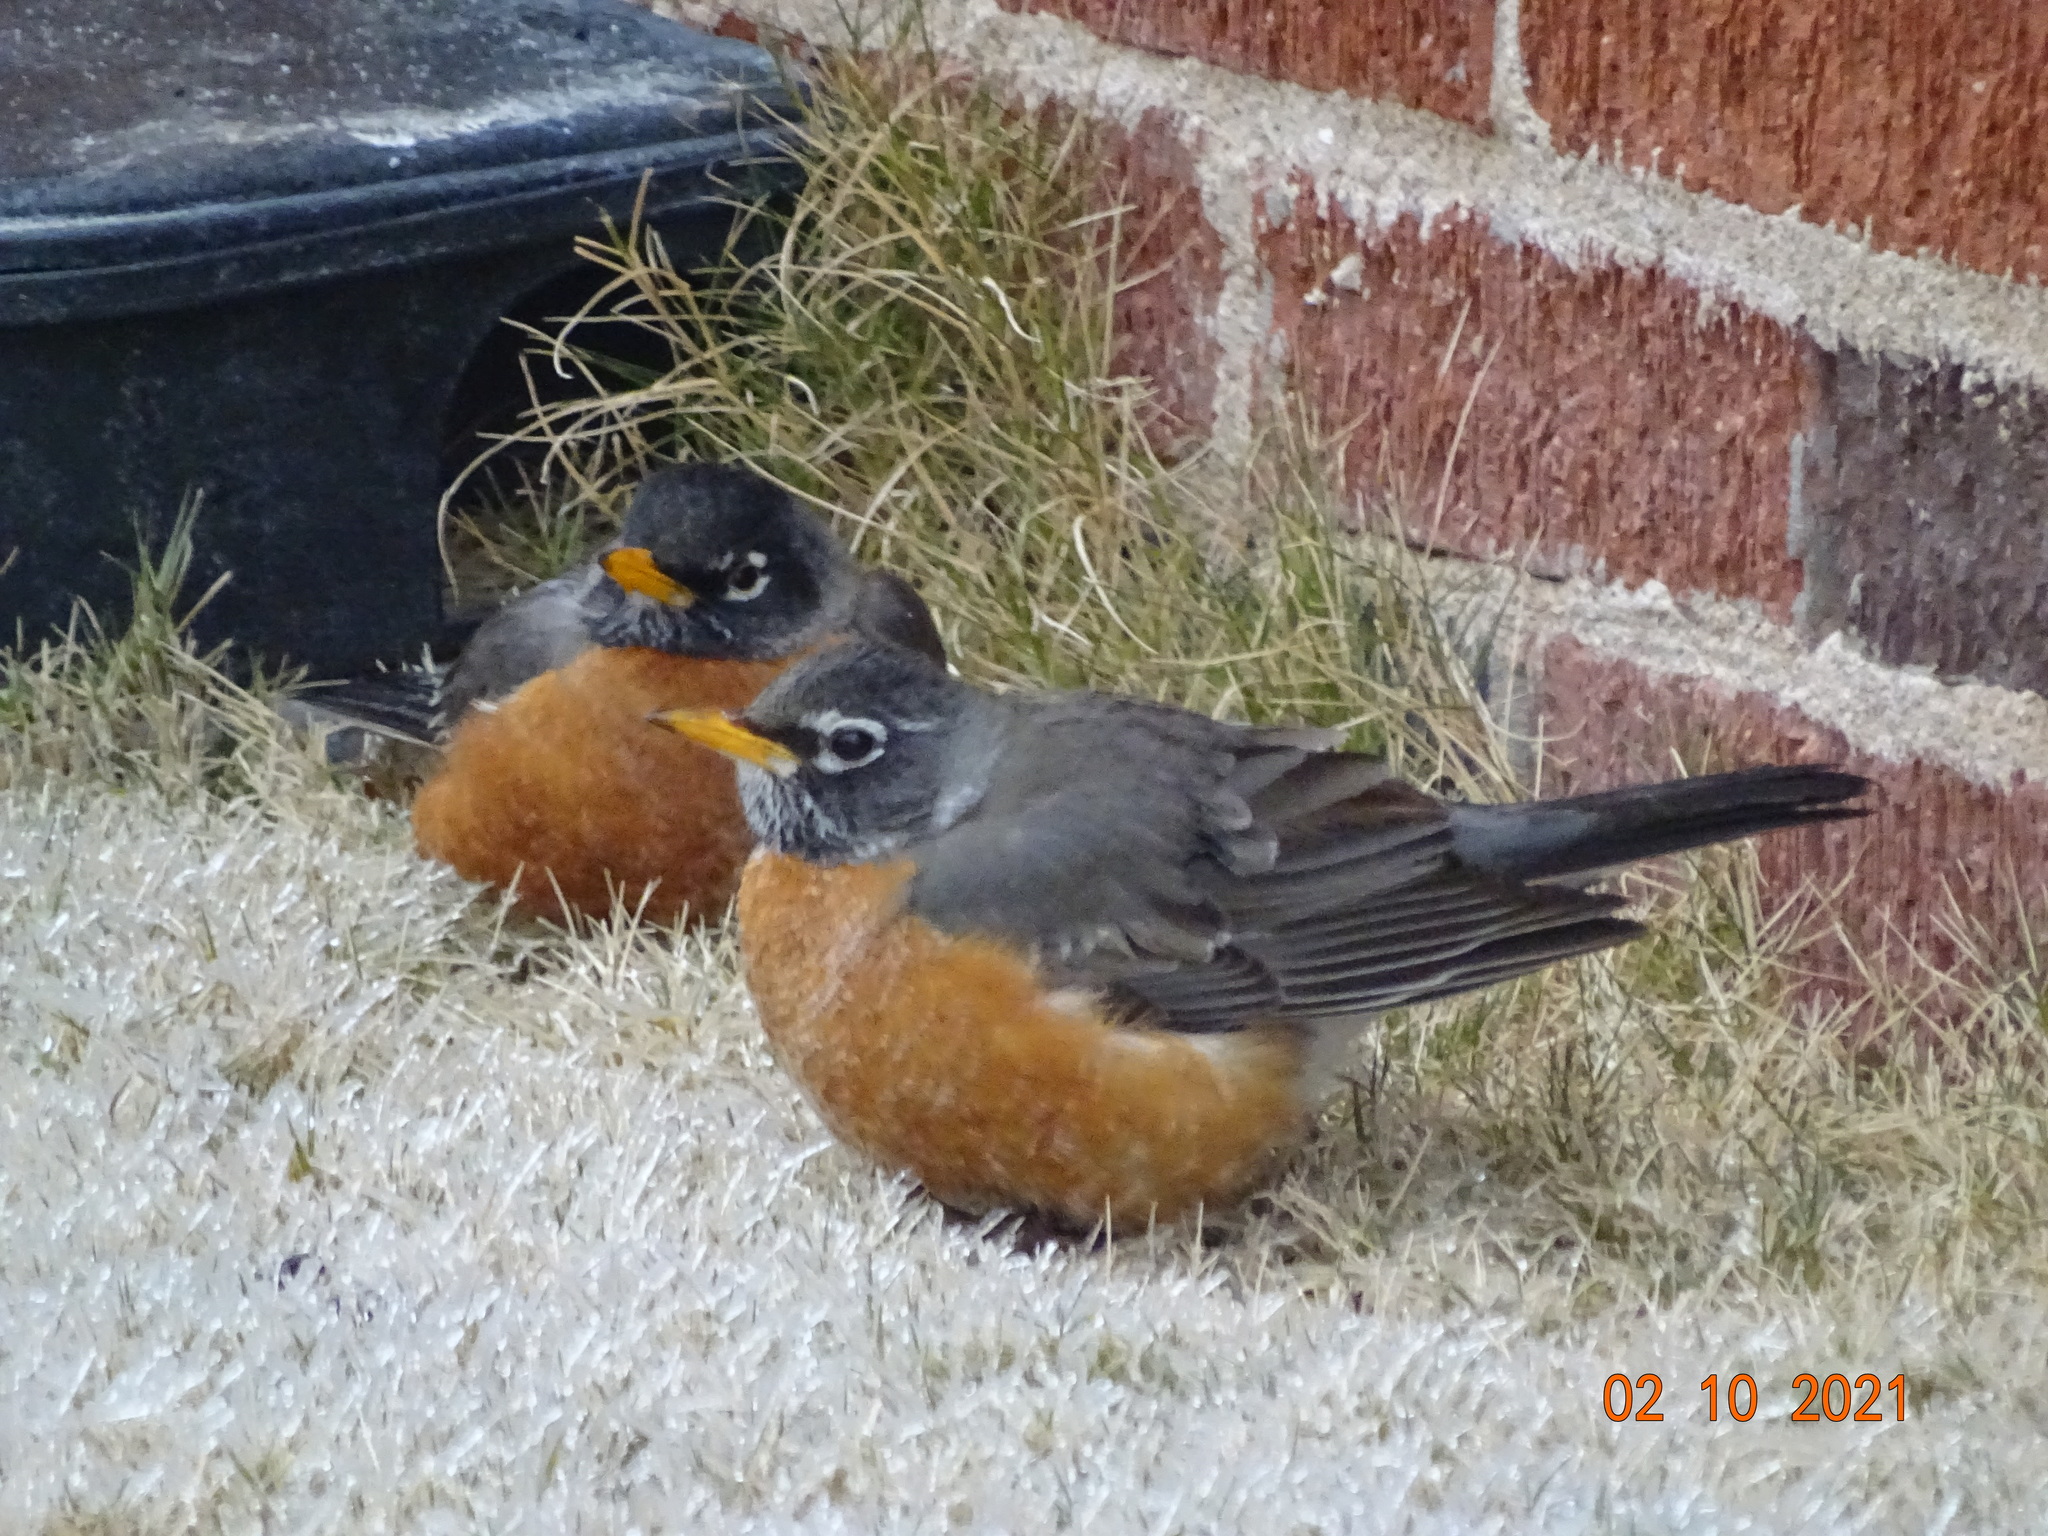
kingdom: Animalia
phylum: Chordata
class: Aves
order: Passeriformes
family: Turdidae
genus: Turdus
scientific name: Turdus migratorius
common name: American robin
